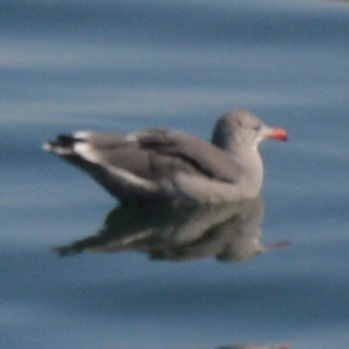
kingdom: Animalia
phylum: Chordata
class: Aves
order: Charadriiformes
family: Laridae
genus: Larus
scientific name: Larus heermanni
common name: Heermann's gull
